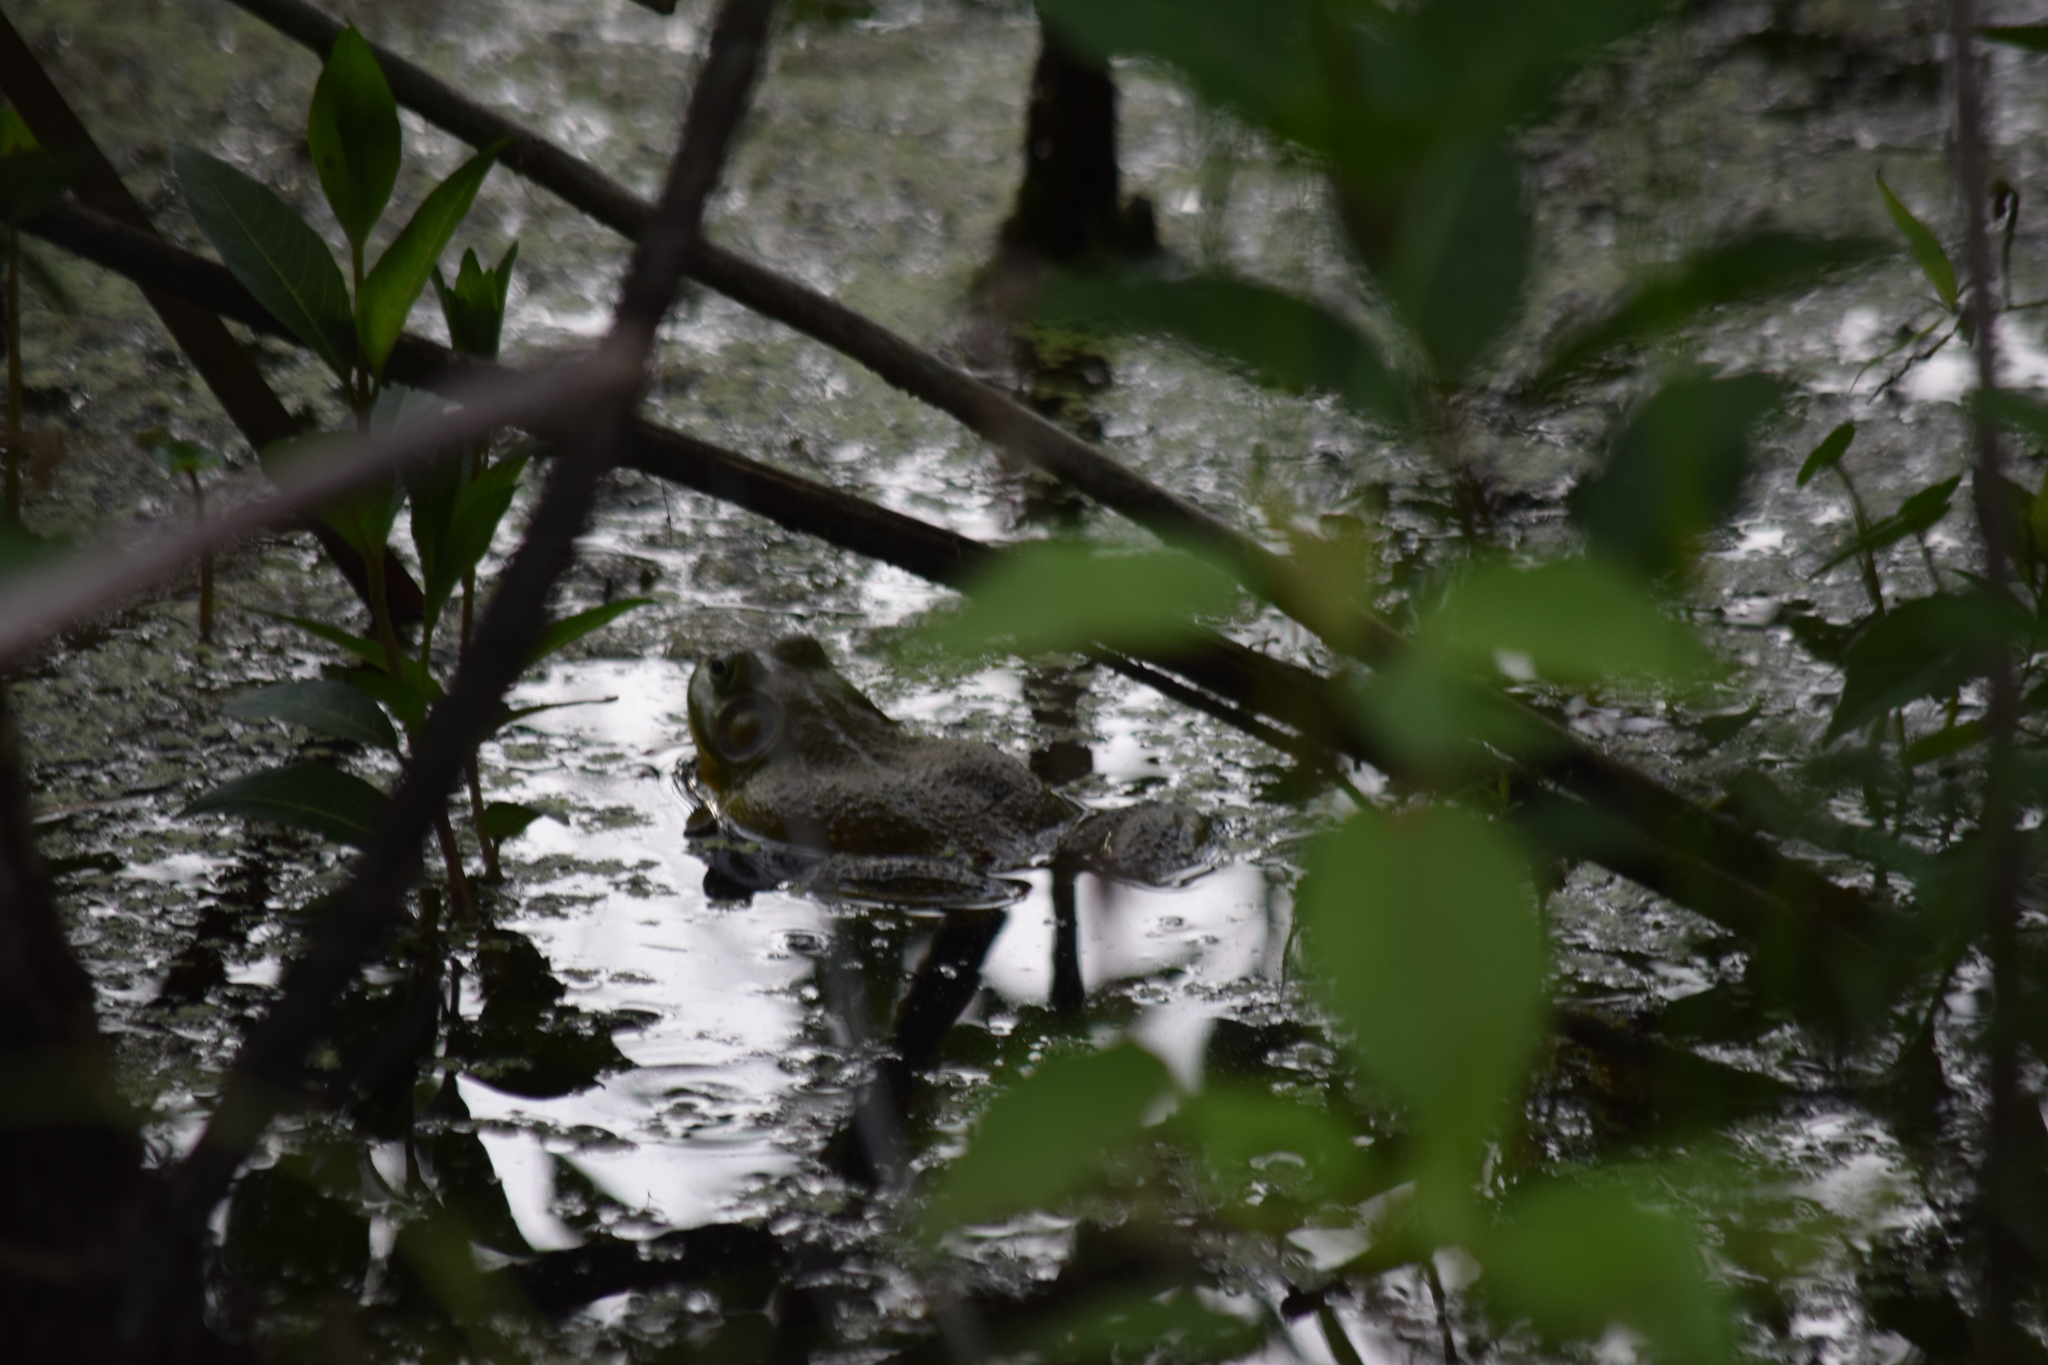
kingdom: Animalia
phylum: Chordata
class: Amphibia
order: Anura
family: Ranidae
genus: Lithobates
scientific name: Lithobates catesbeianus
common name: American bullfrog
